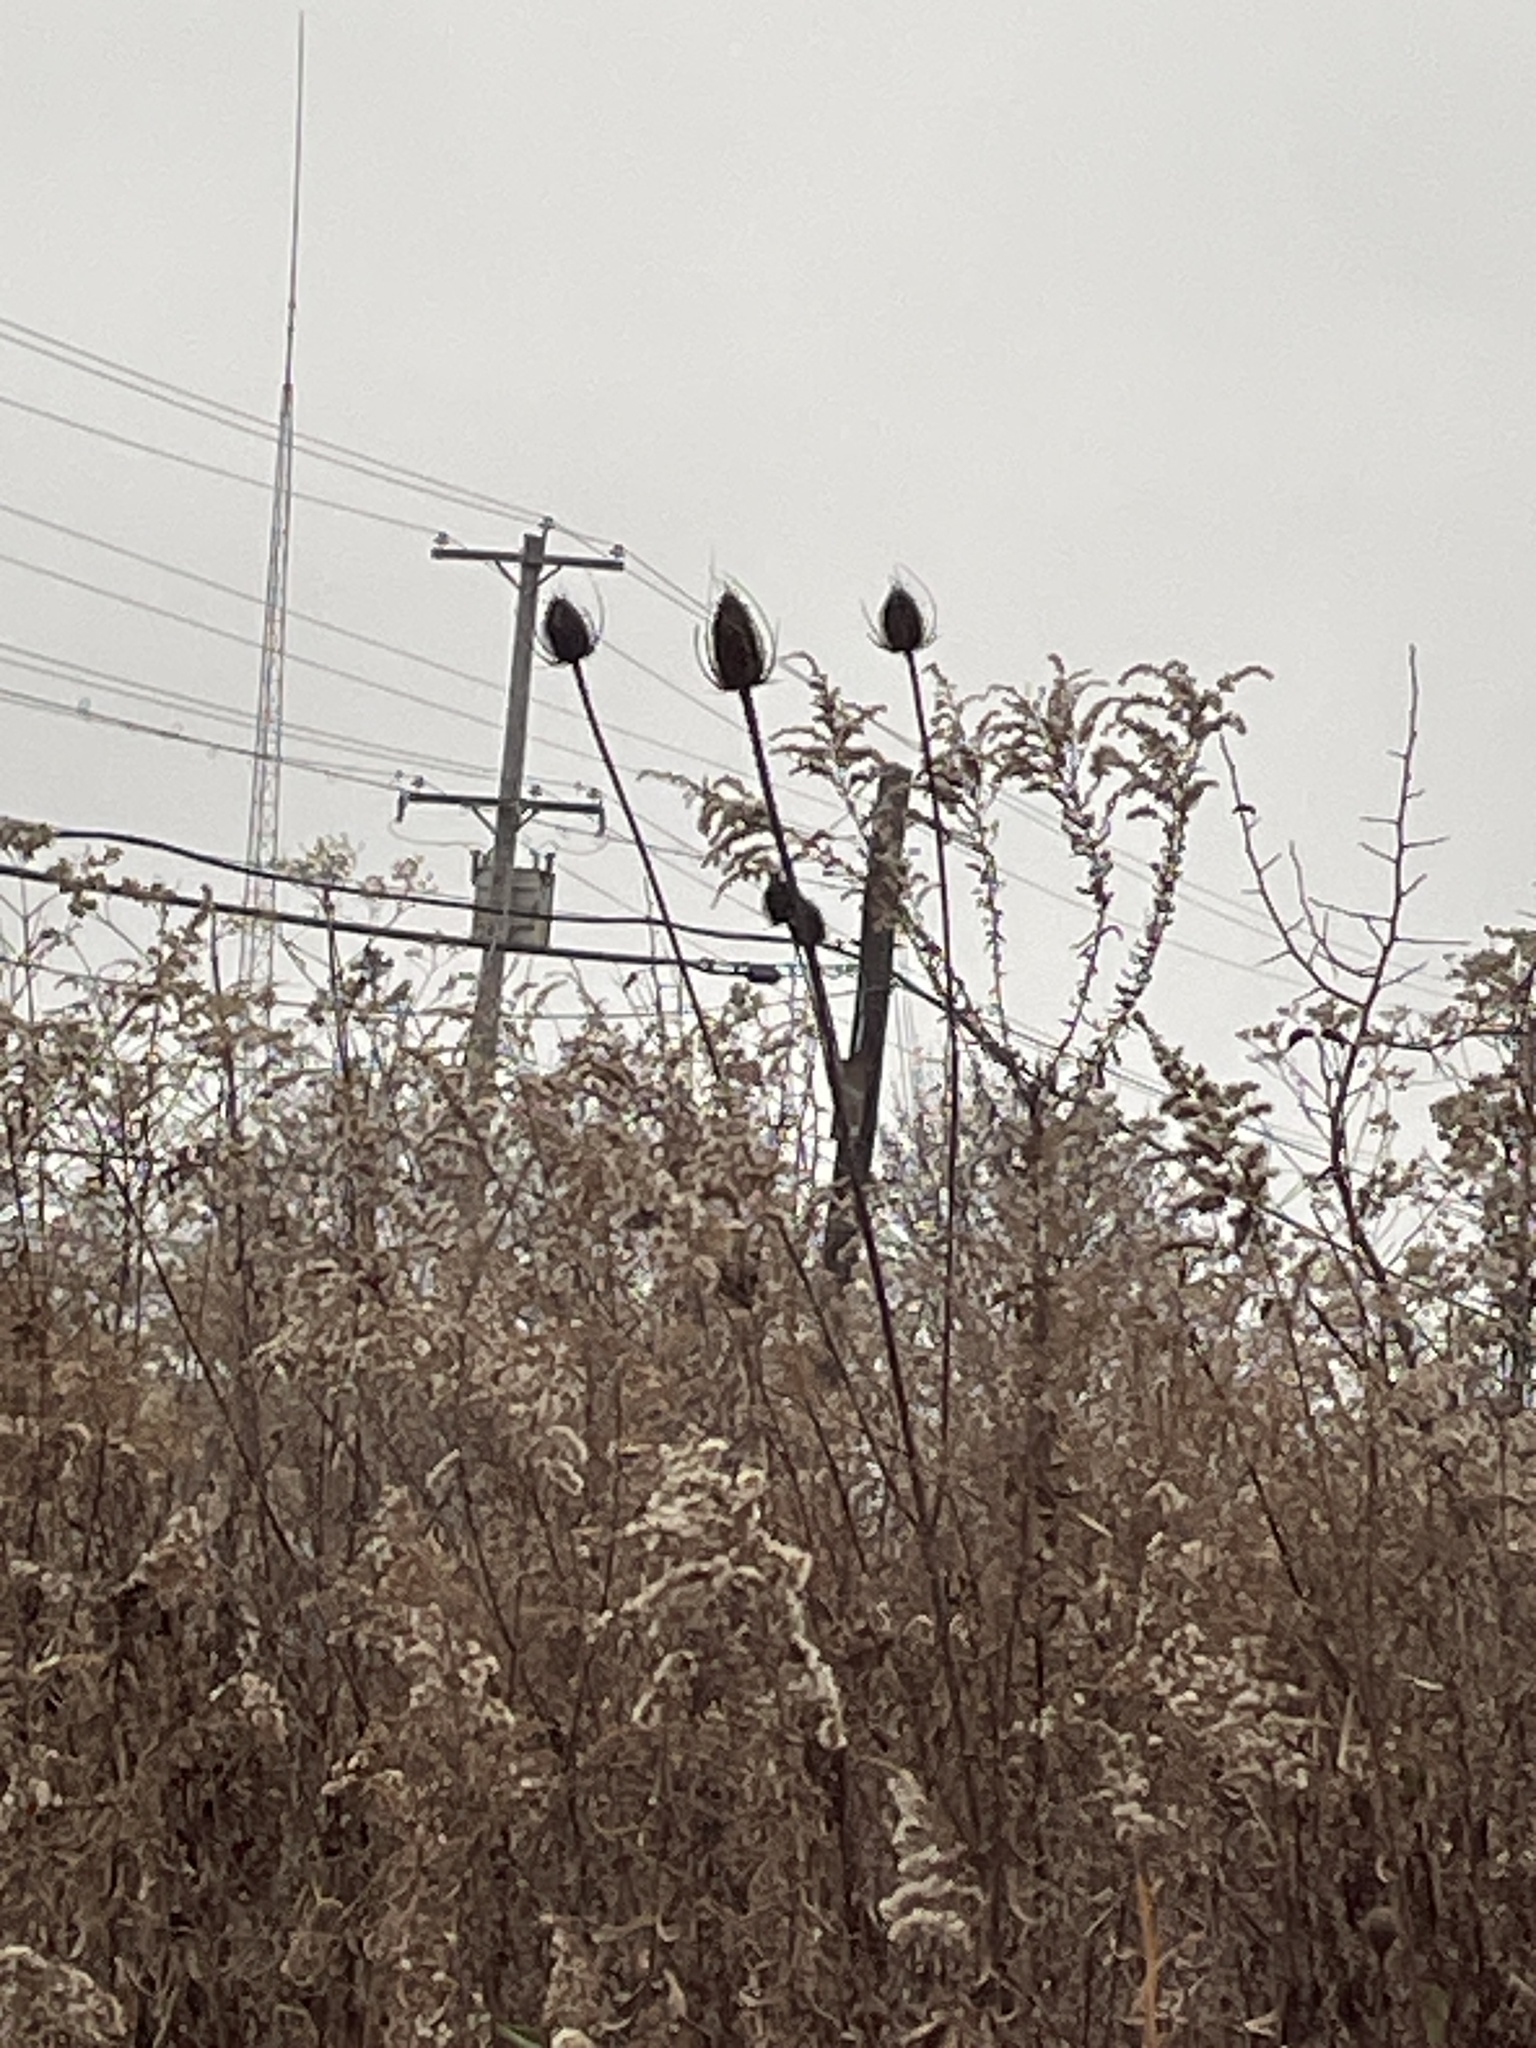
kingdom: Plantae
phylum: Tracheophyta
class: Magnoliopsida
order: Dipsacales
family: Caprifoliaceae
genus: Dipsacus
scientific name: Dipsacus fullonum
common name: Teasel
